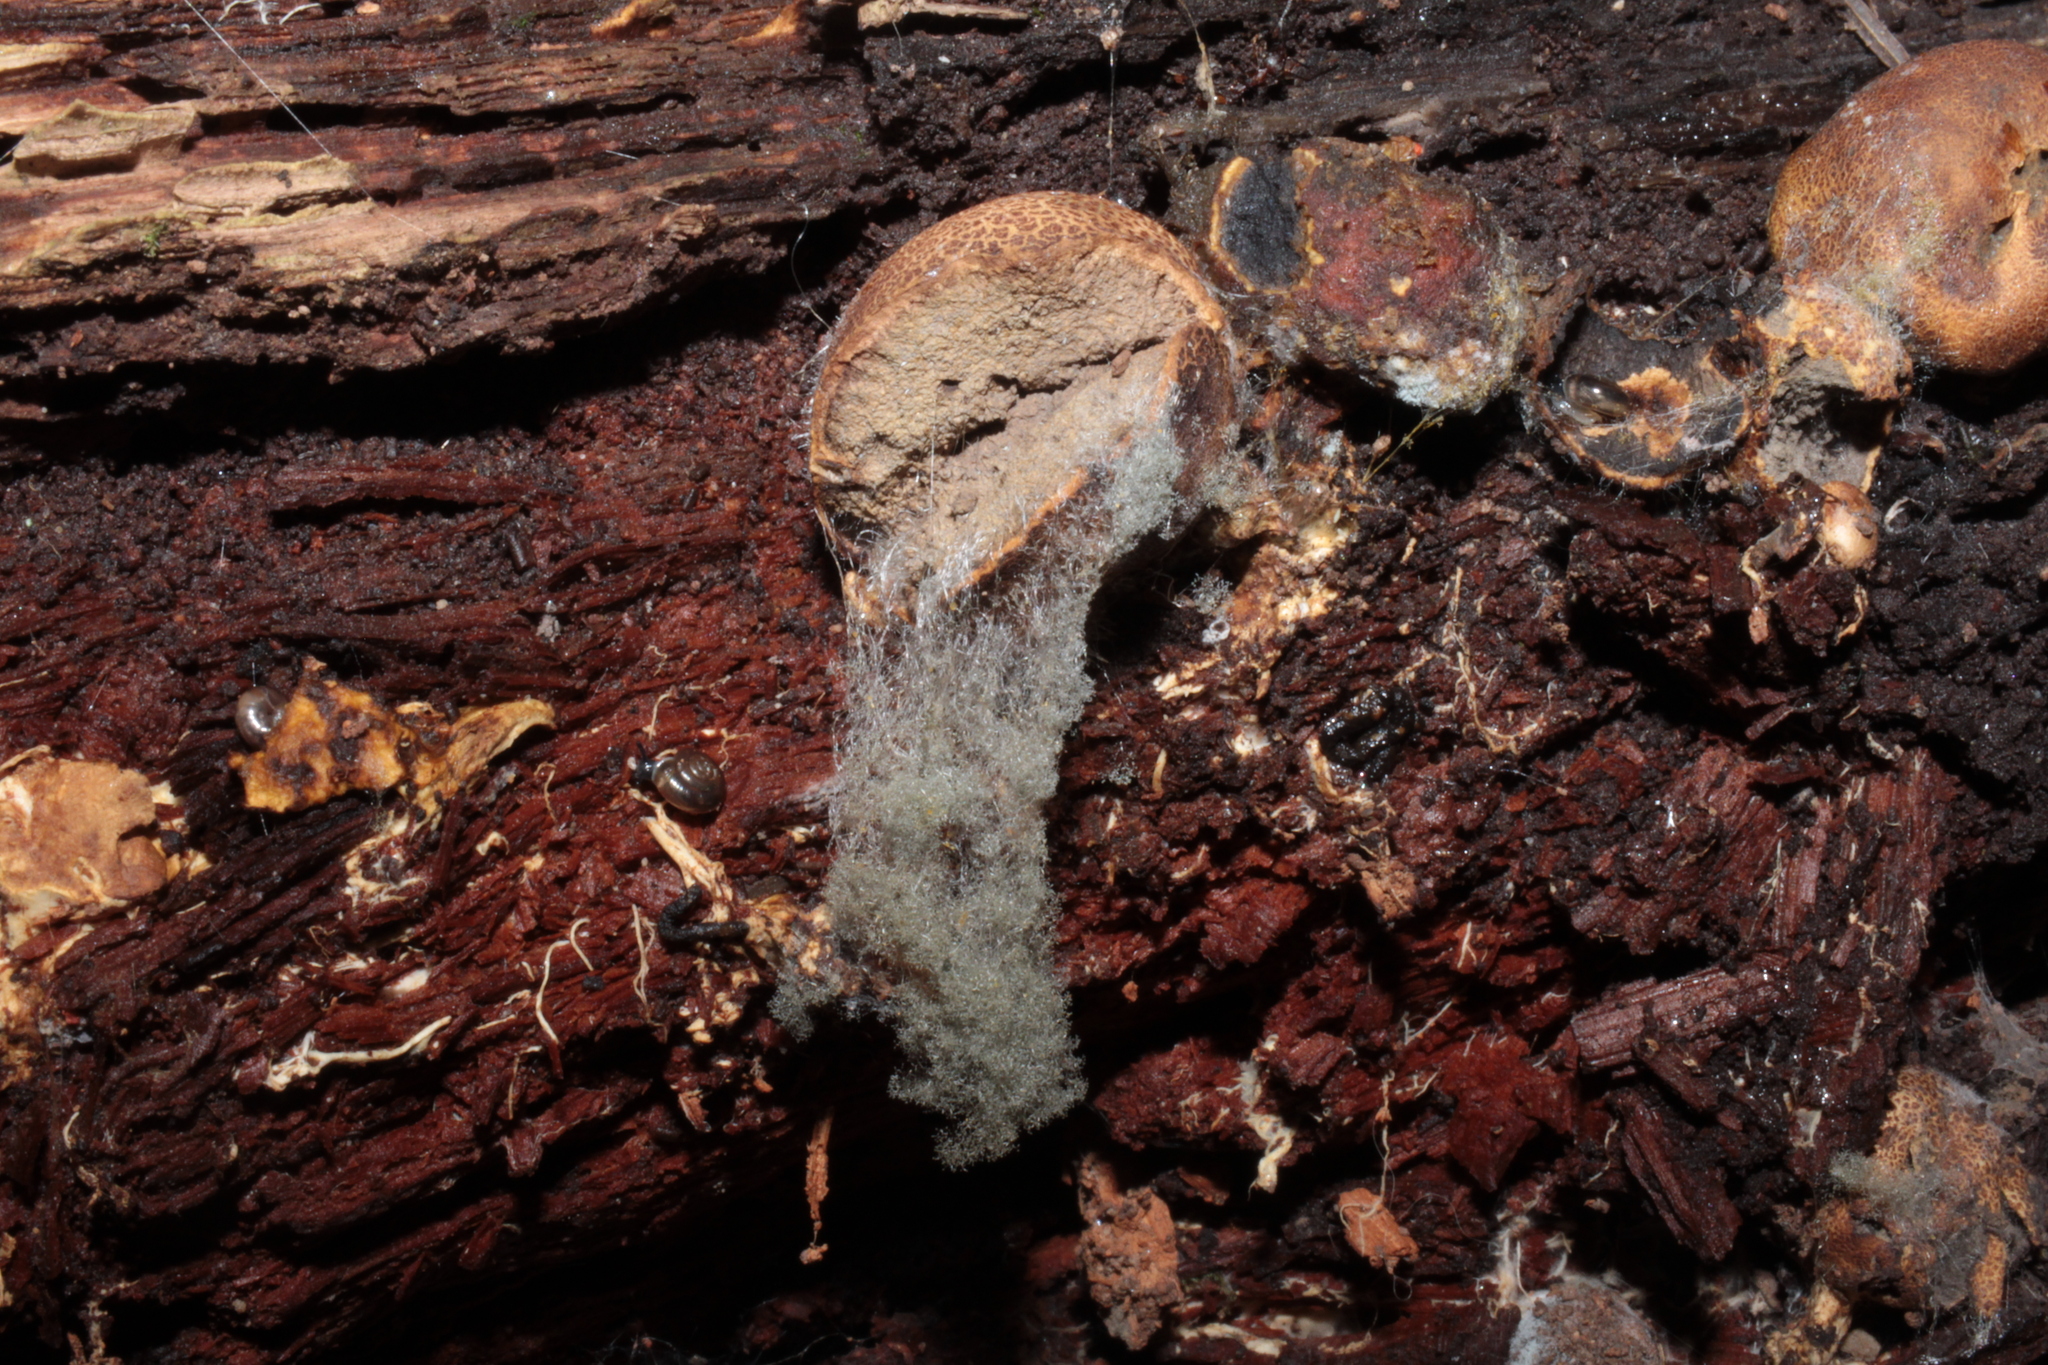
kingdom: Fungi
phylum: Mucoromycota
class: Mucoromycetes
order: Mucorales
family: Rhizopodaceae
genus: Syzygites
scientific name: Syzygites megalocarpus
